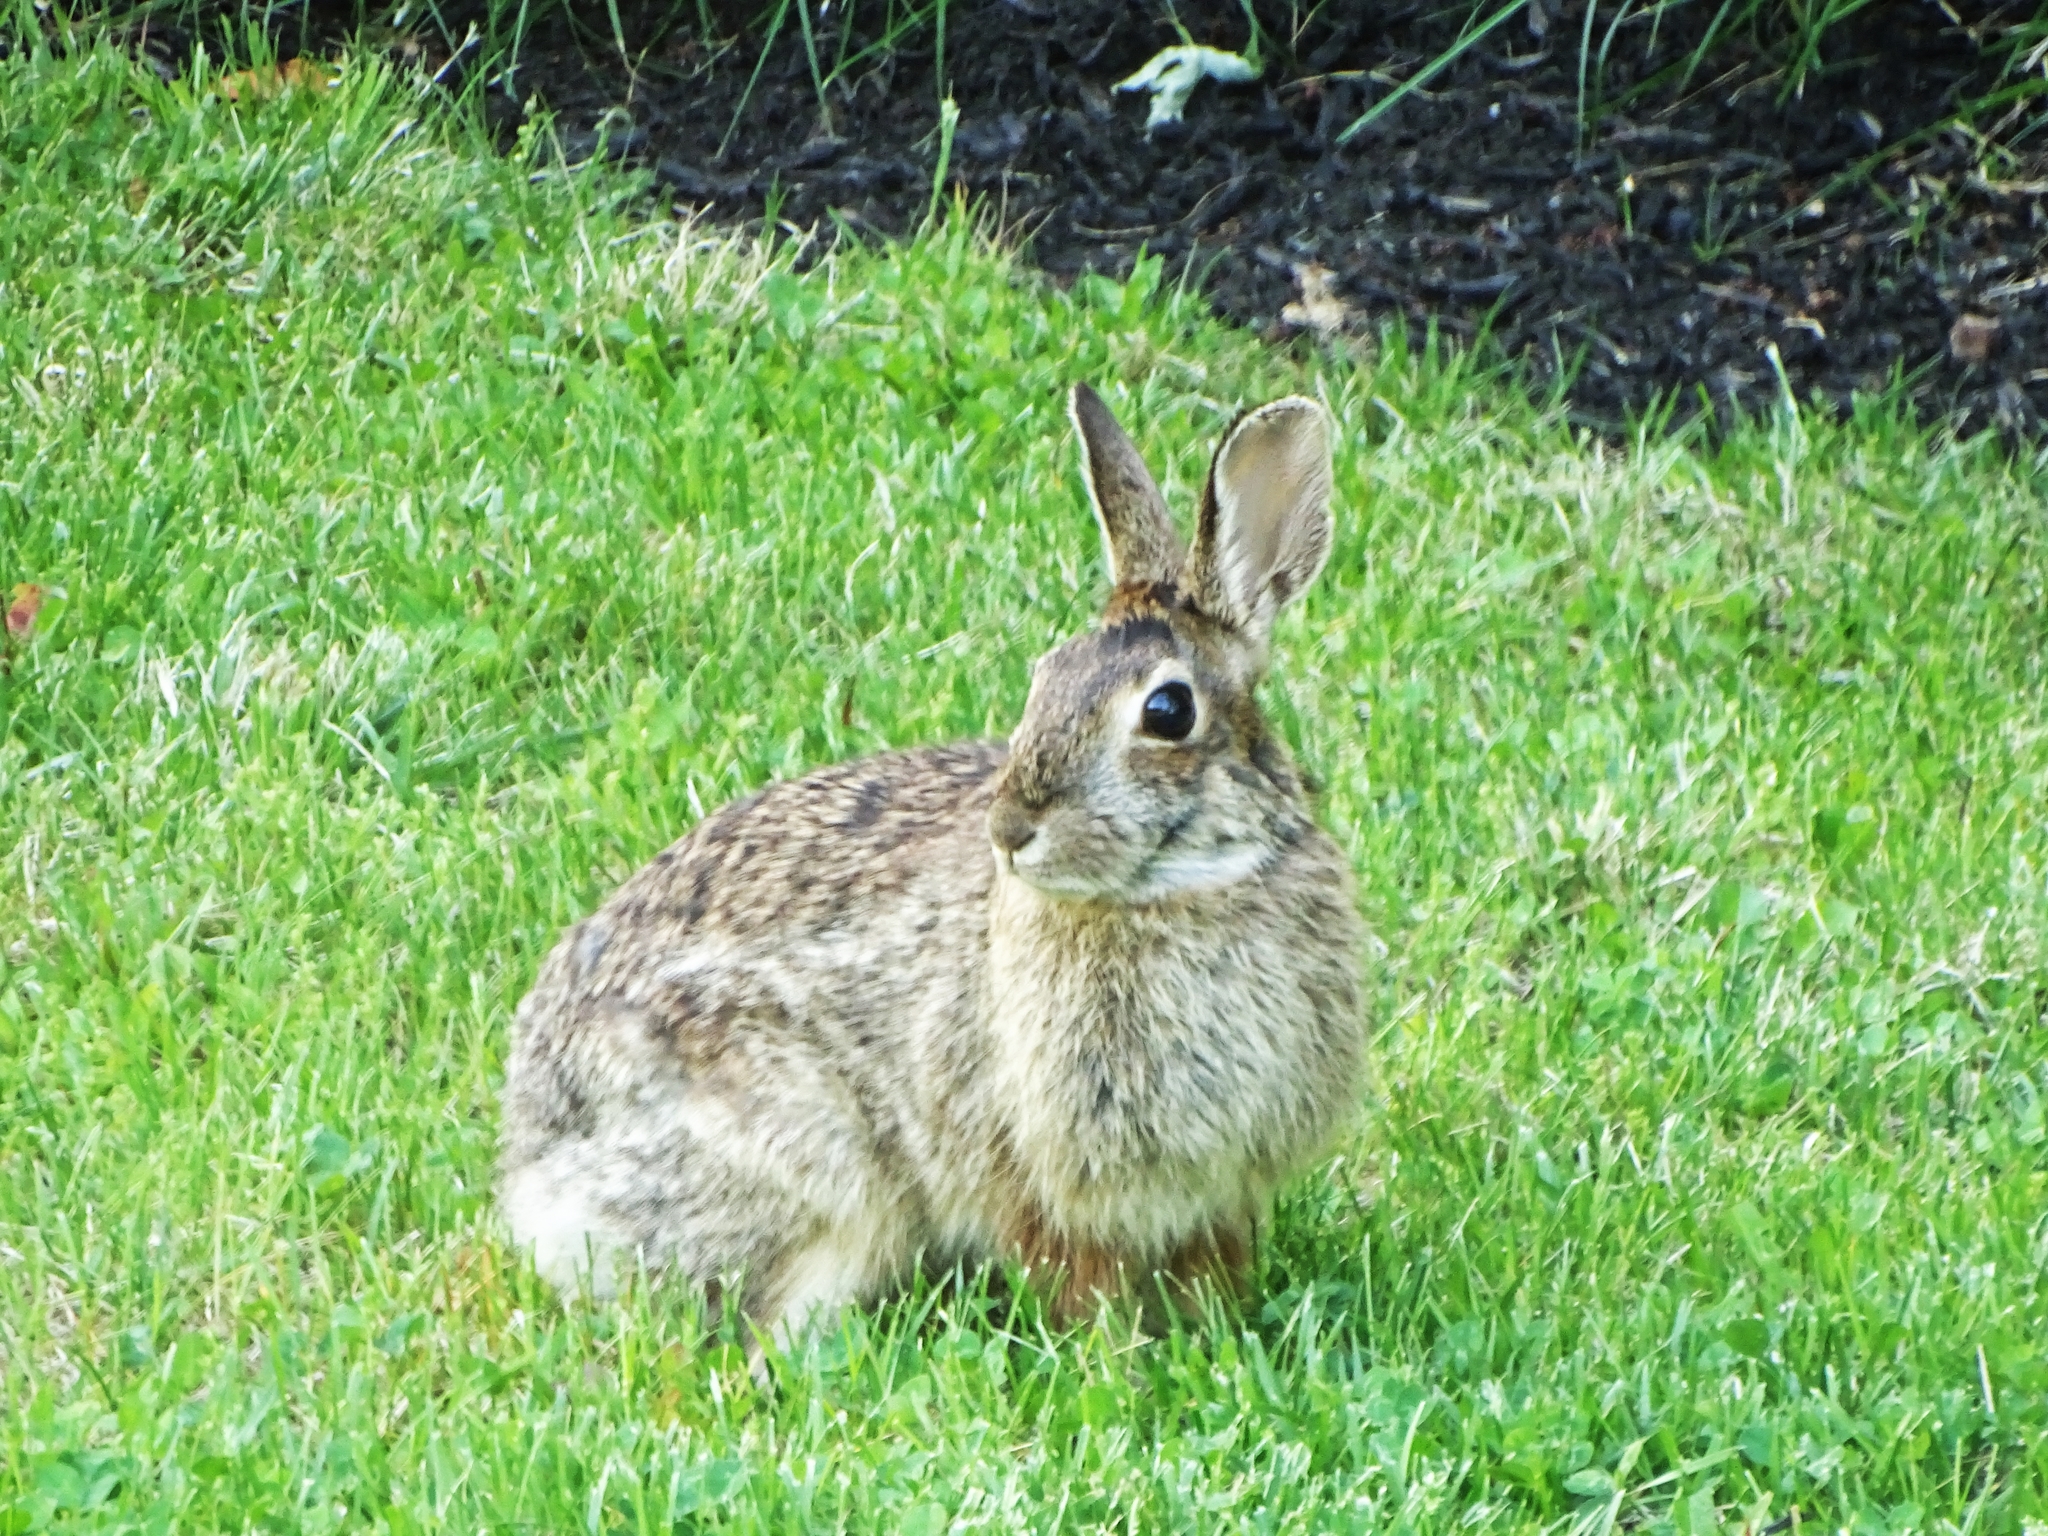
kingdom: Animalia
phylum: Chordata
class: Mammalia
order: Lagomorpha
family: Leporidae
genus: Sylvilagus
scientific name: Sylvilagus floridanus
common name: Eastern cottontail
